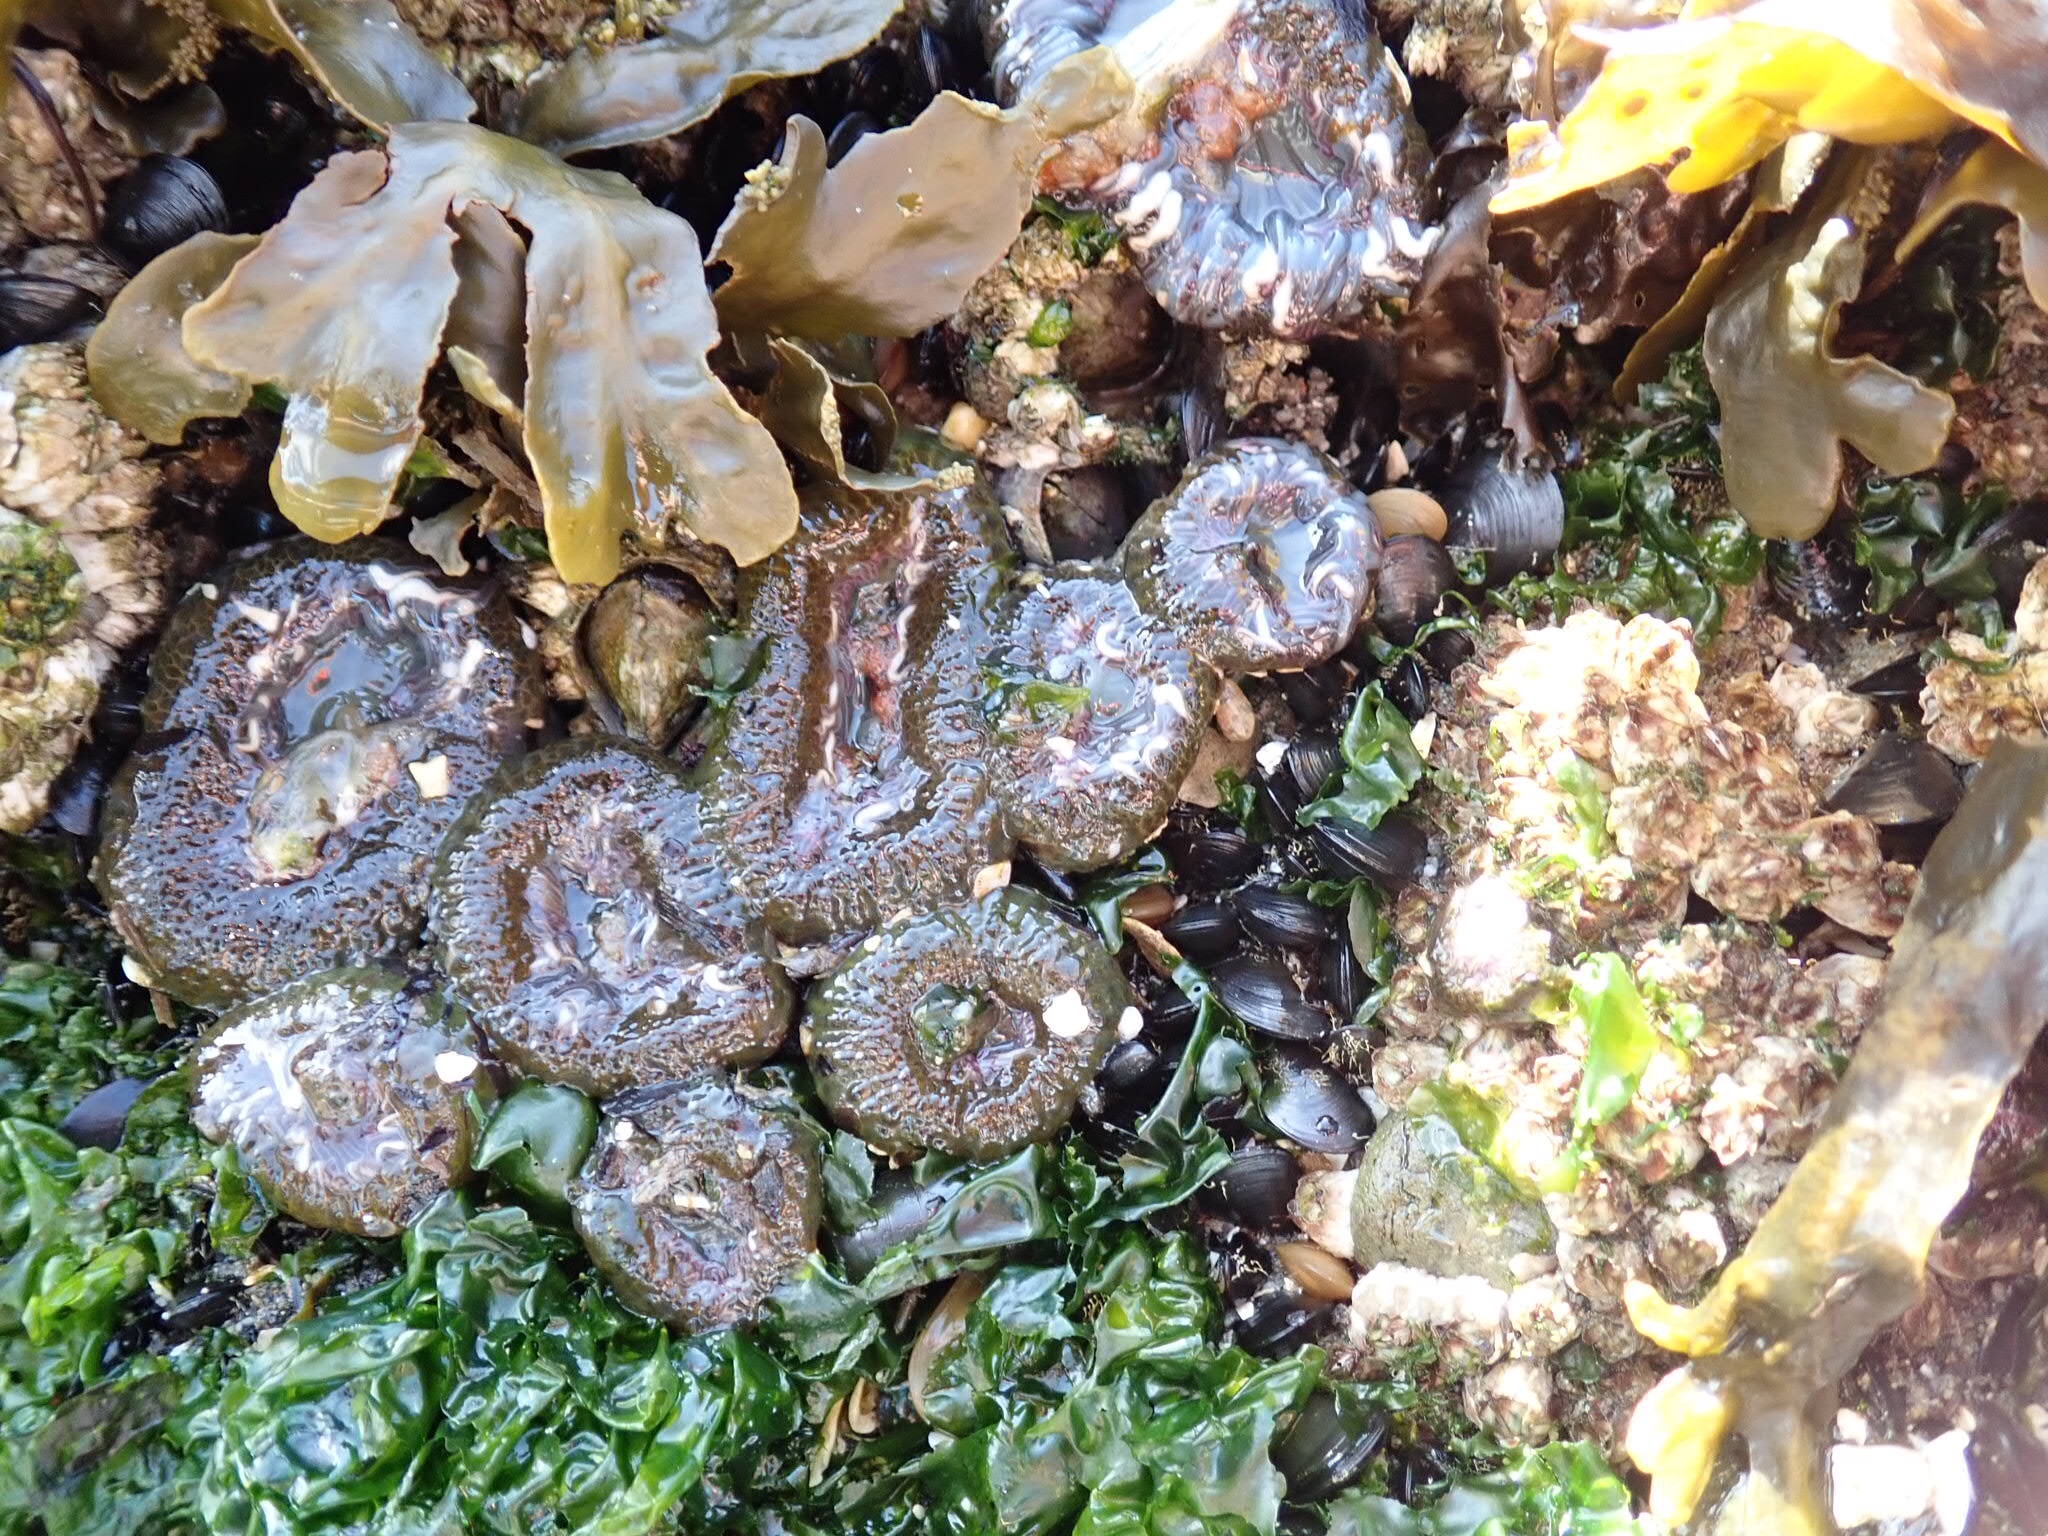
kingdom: Animalia
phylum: Cnidaria
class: Anthozoa
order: Actiniaria
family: Actiniidae
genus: Anthopleura
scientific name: Anthopleura elegantissima
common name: Clonal anemone
